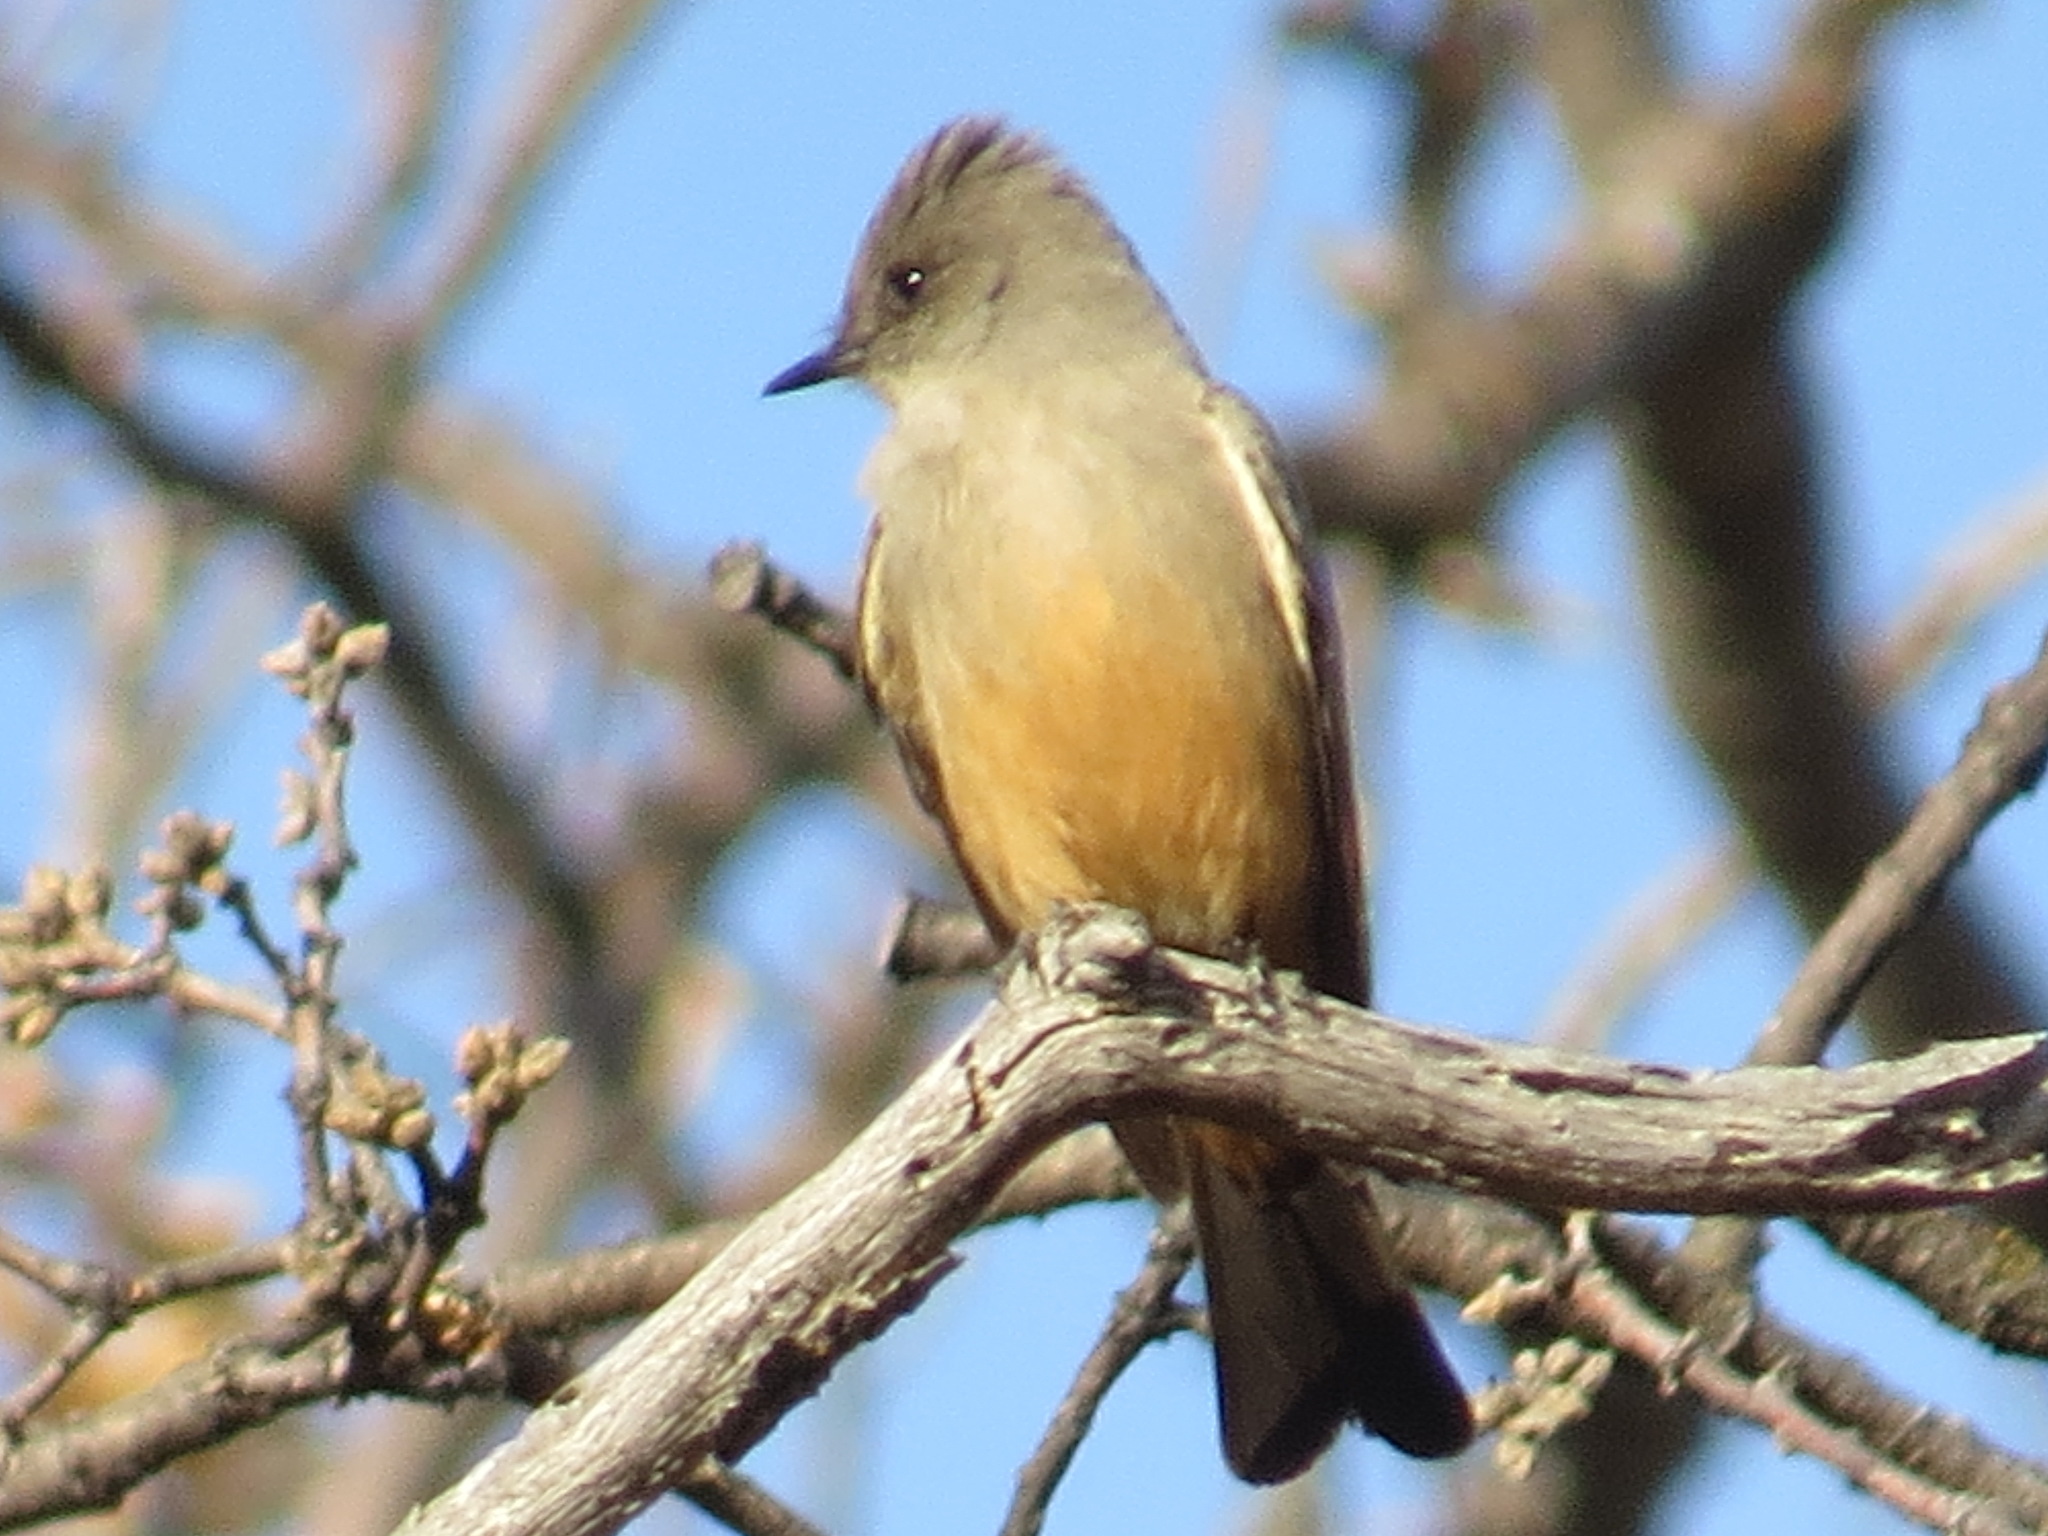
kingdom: Animalia
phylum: Chordata
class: Aves
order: Passeriformes
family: Tyrannidae
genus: Sayornis
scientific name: Sayornis saya
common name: Say's phoebe
